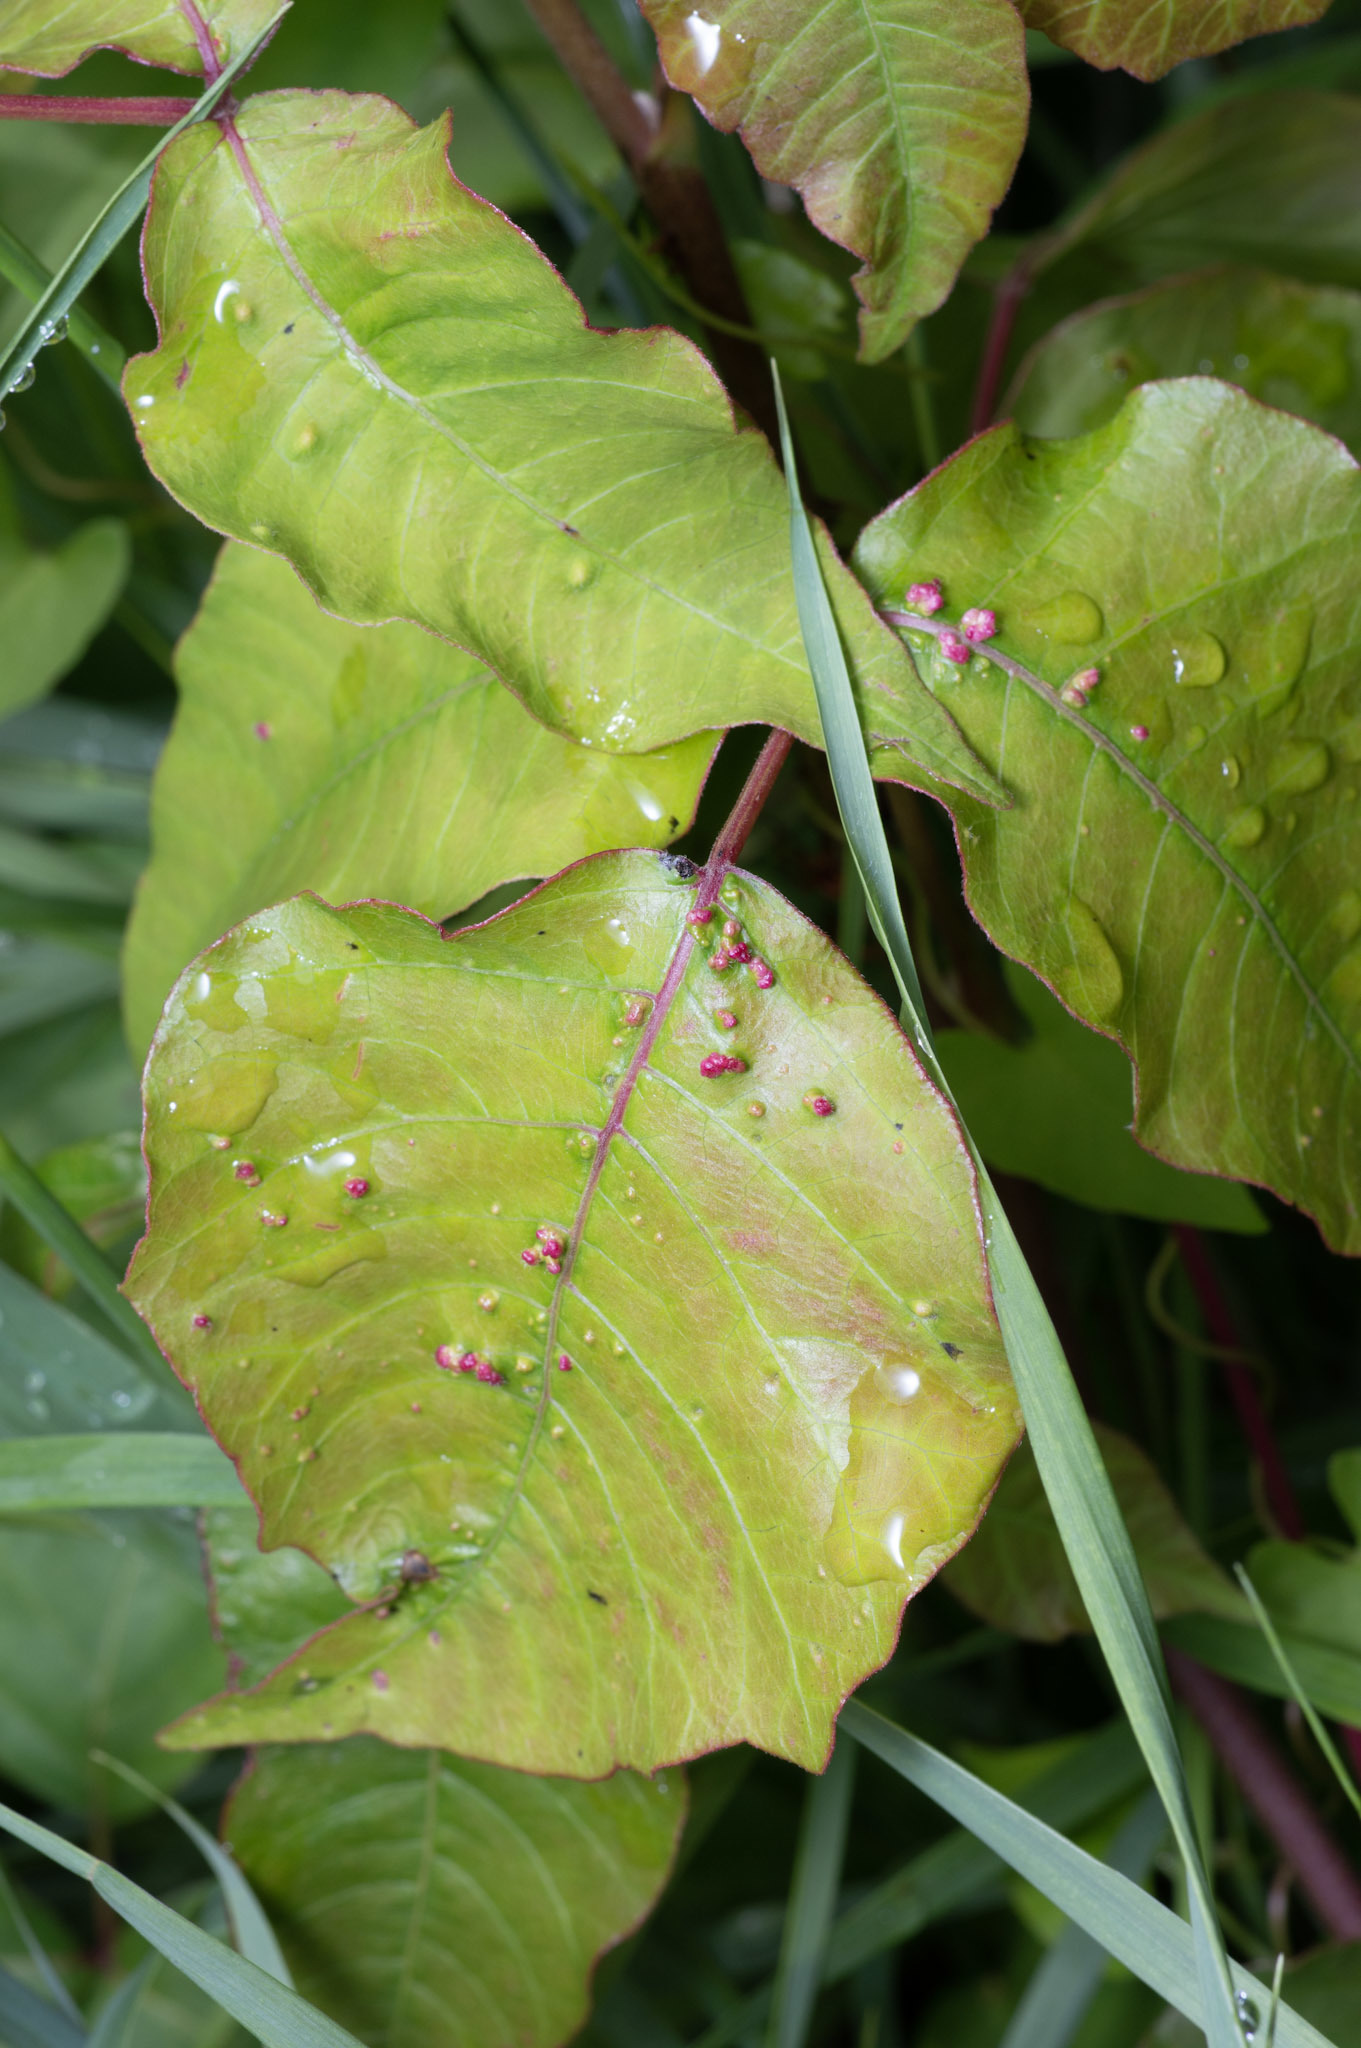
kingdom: Animalia
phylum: Arthropoda
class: Arachnida
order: Trombidiformes
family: Eriophyidae
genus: Aculops
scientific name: Aculops
